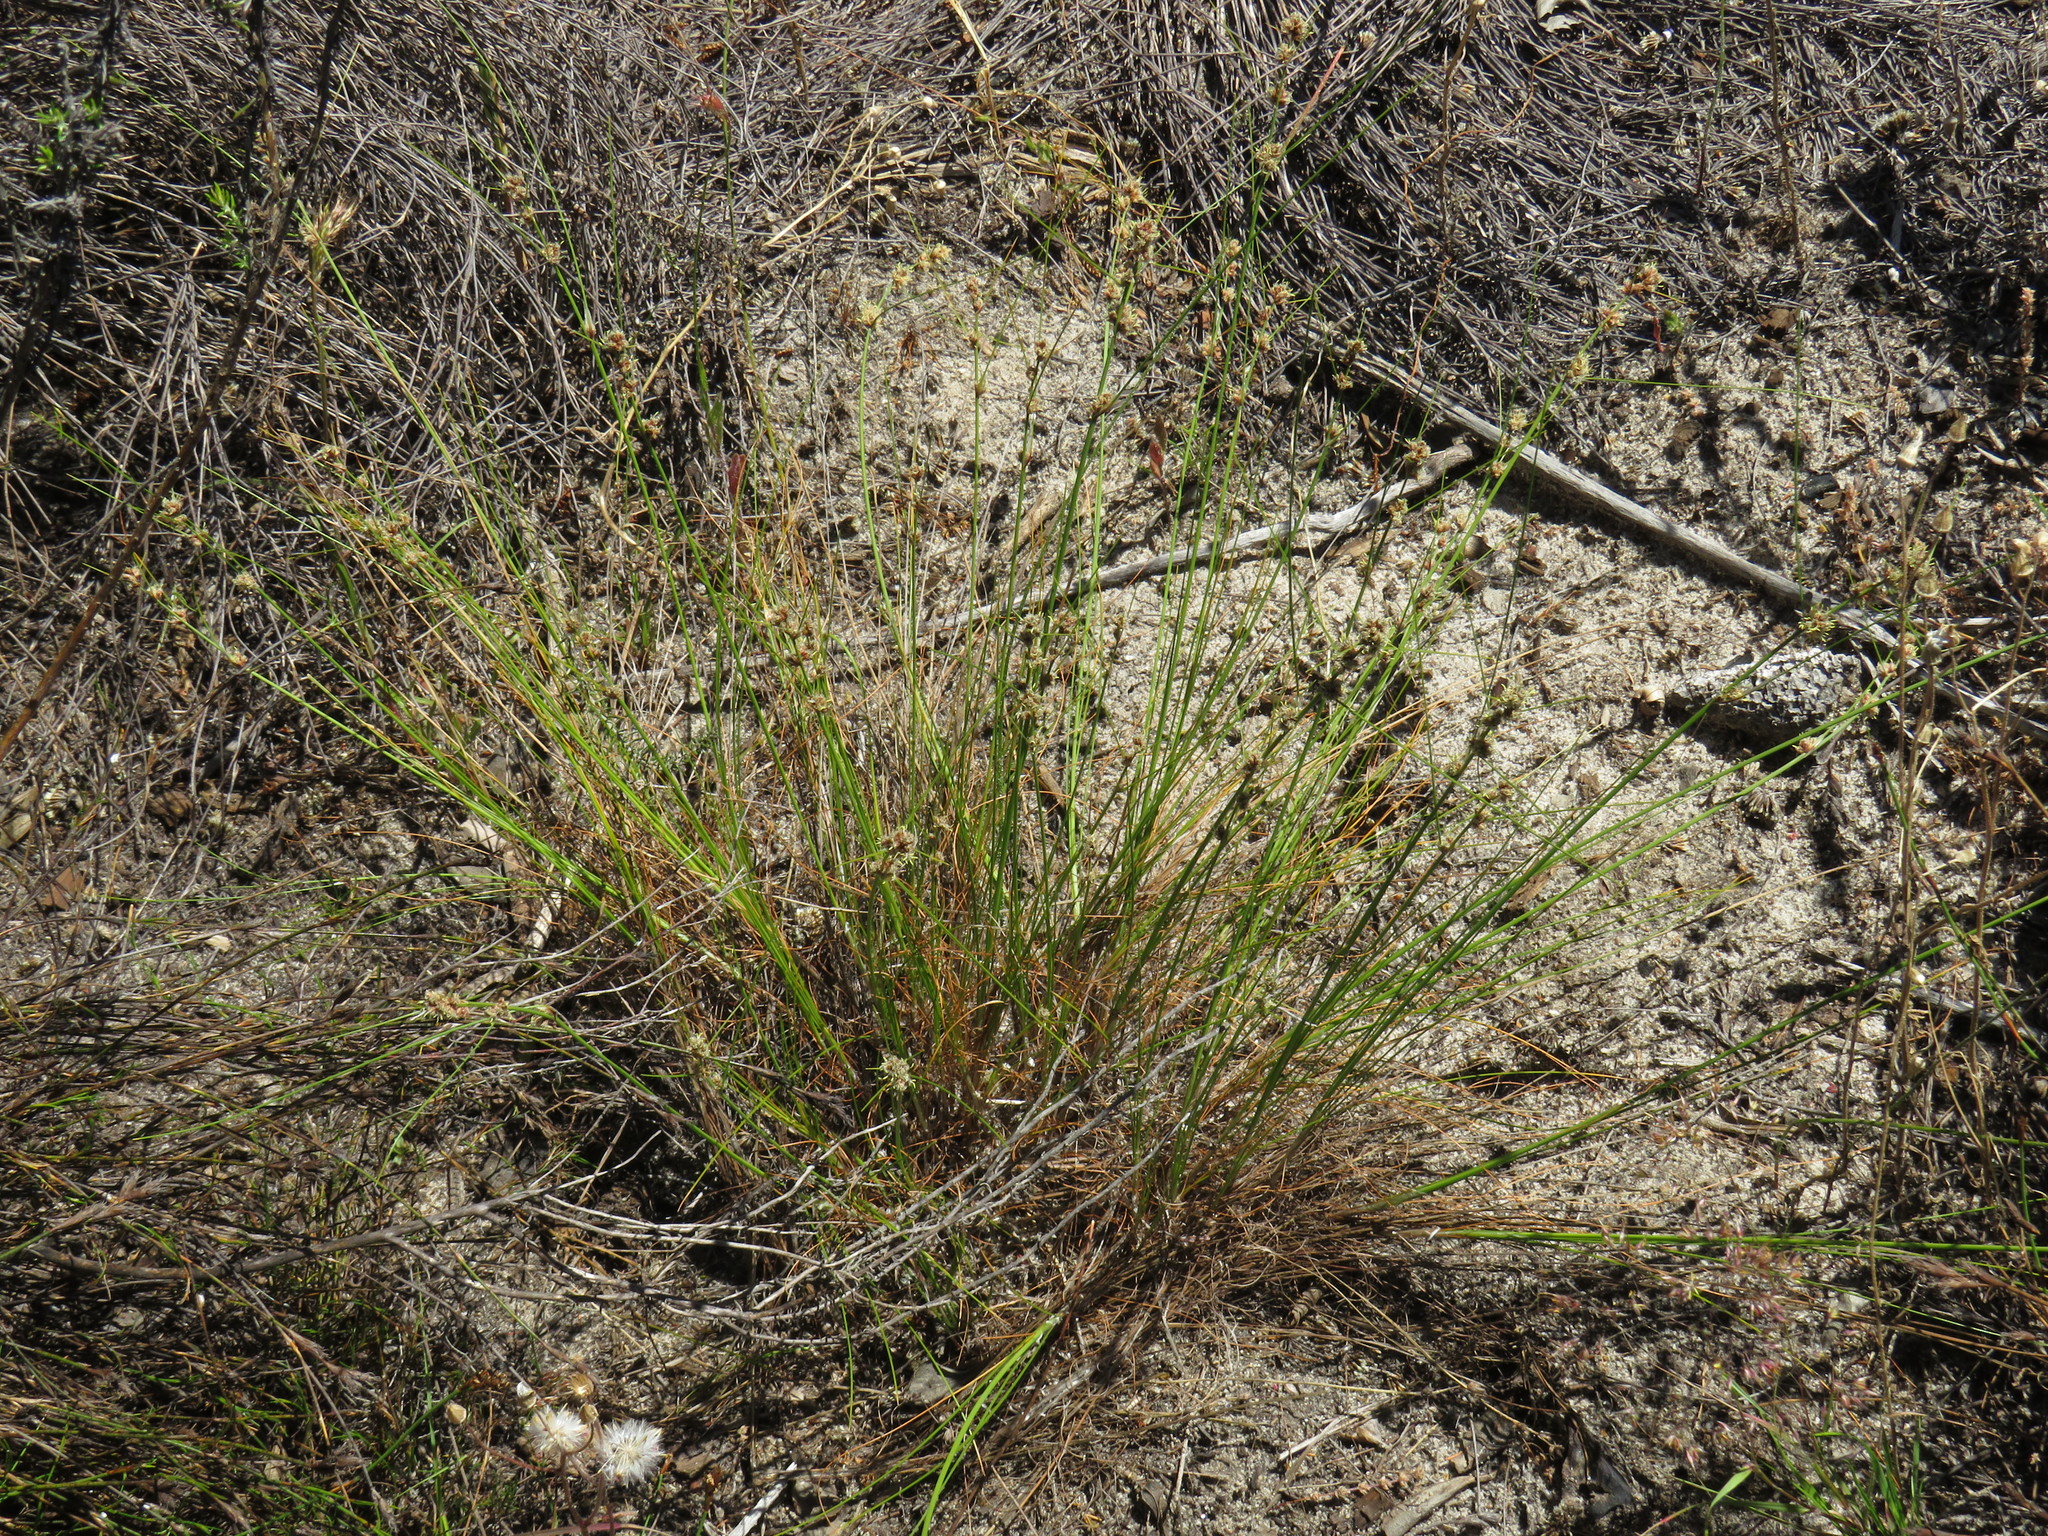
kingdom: Plantae
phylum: Tracheophyta
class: Liliopsida
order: Poales
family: Cyperaceae
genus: Ficinia
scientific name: Ficinia bulbosa
